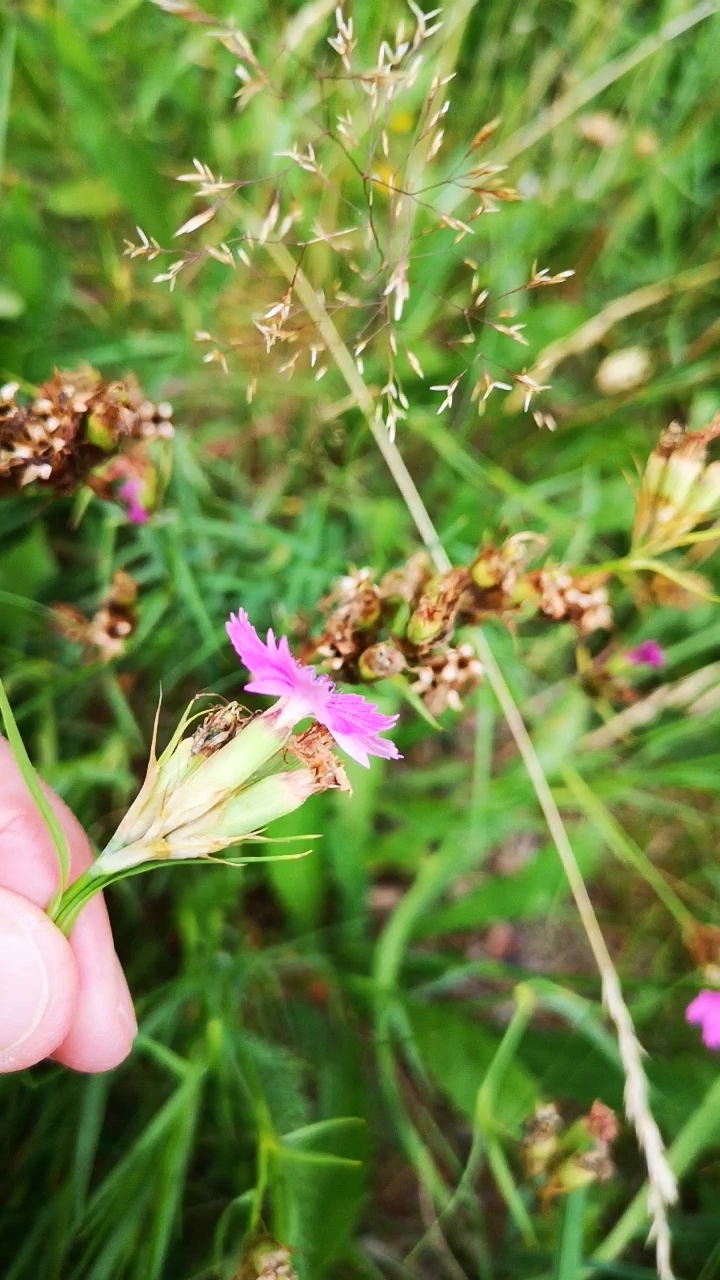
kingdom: Plantae
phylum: Tracheophyta
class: Magnoliopsida
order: Caryophyllales
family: Caryophyllaceae
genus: Dianthus
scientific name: Dianthus carthusianorum
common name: Carthusian pink
